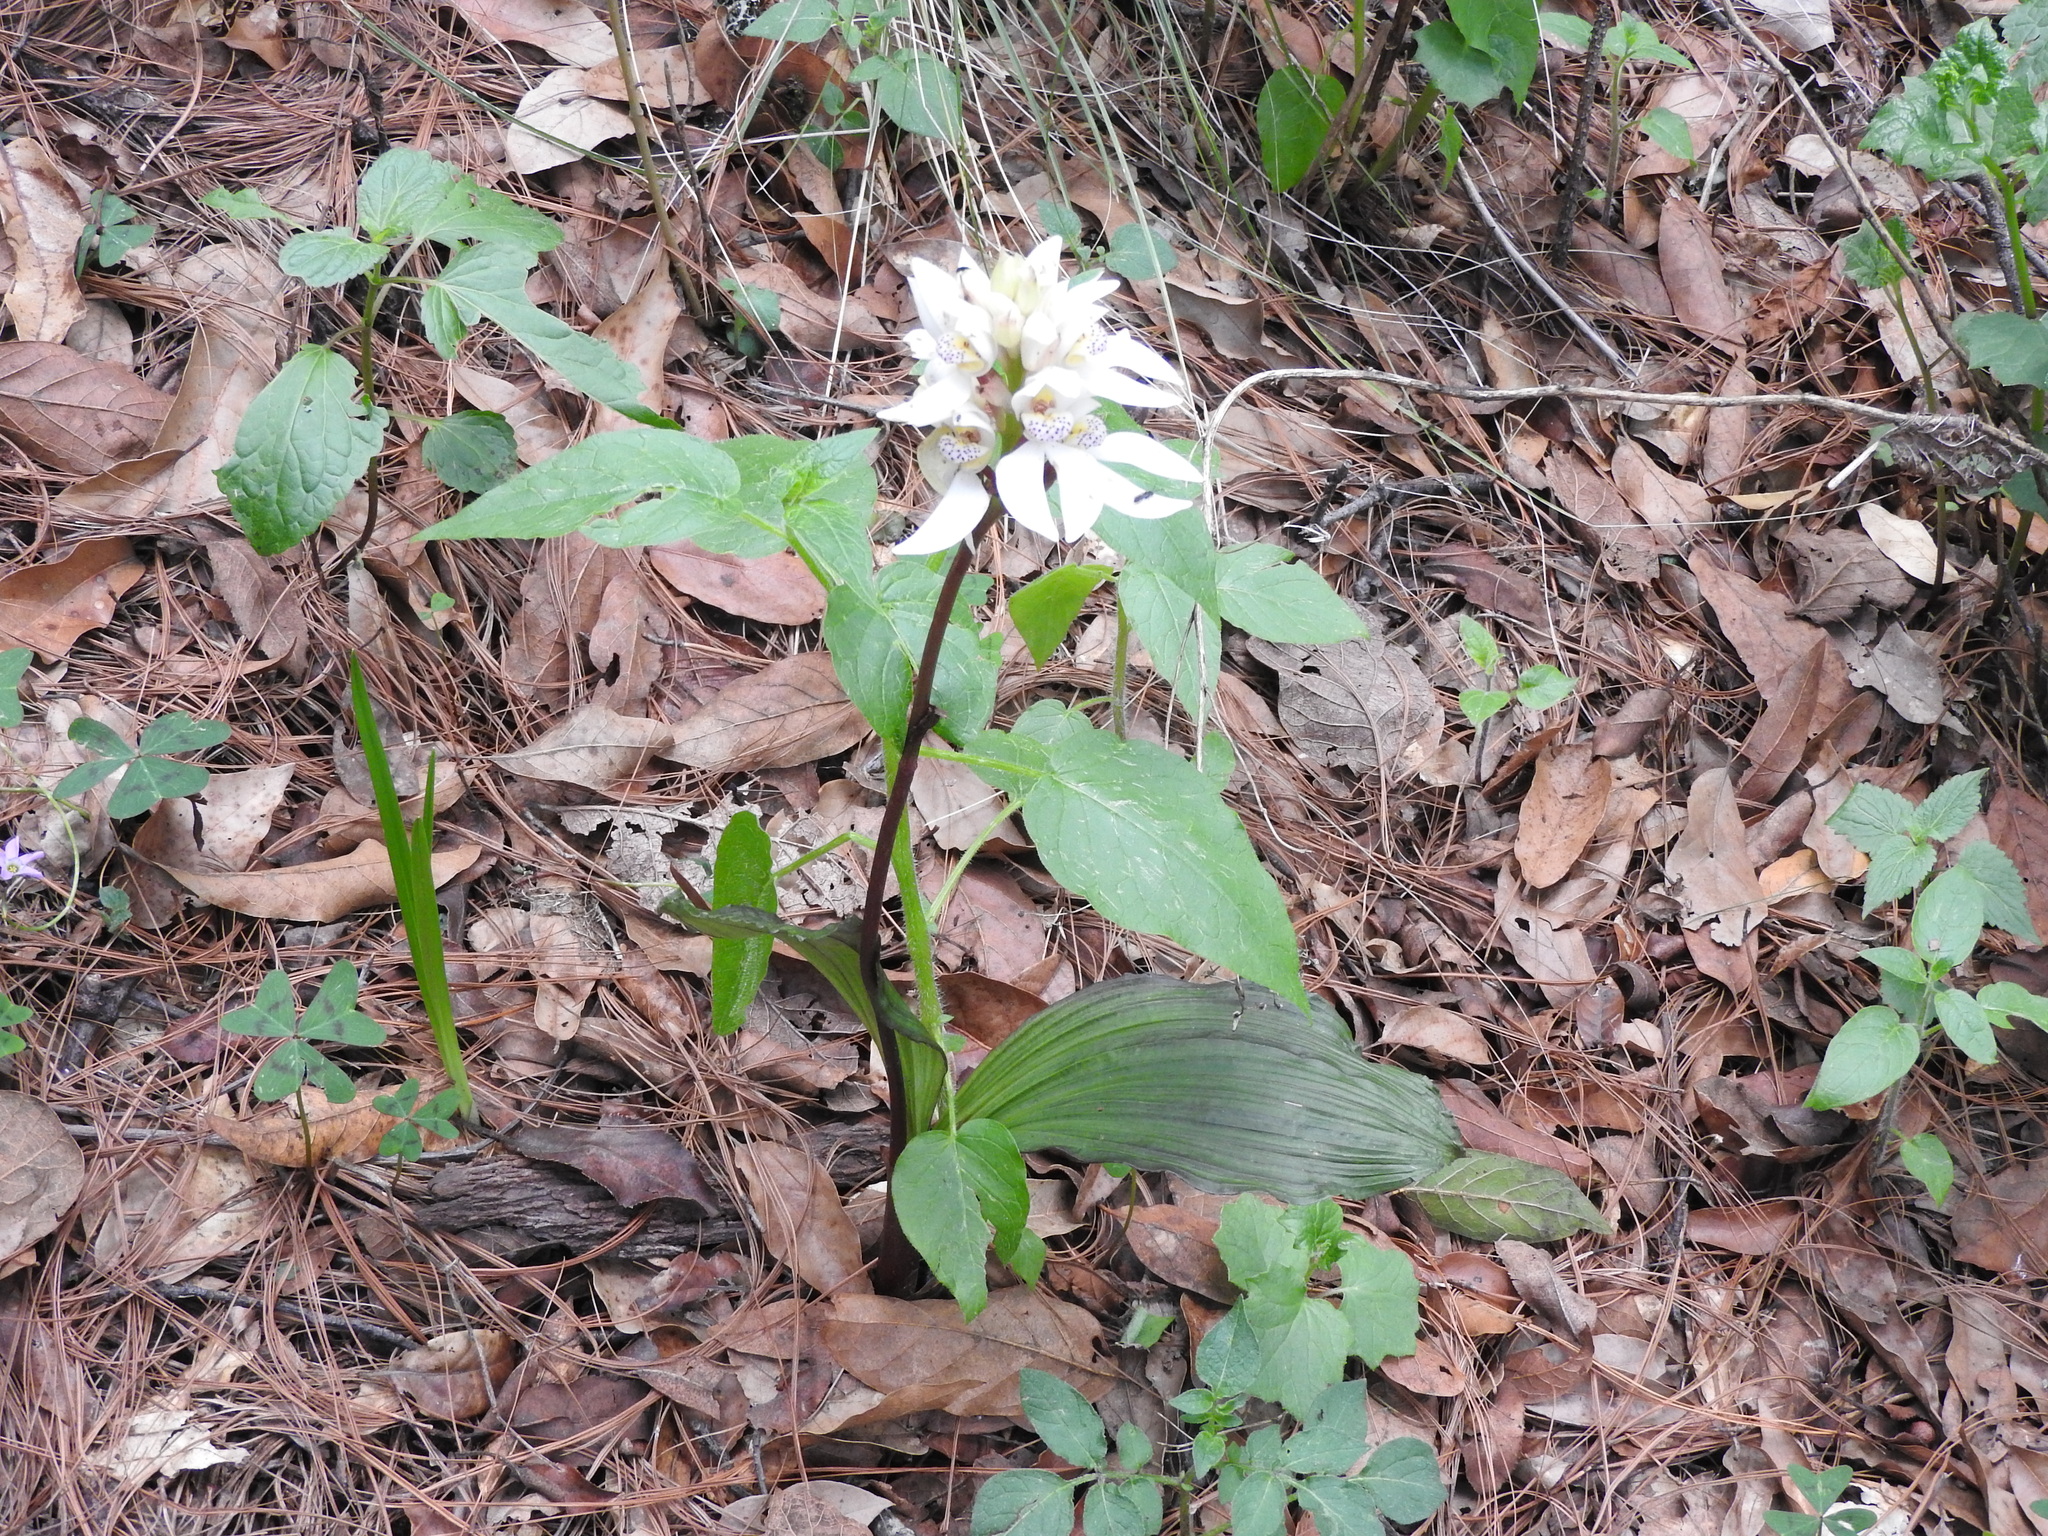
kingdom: Plantae
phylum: Tracheophyta
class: Liliopsida
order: Asparagales
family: Orchidaceae
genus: Govenia
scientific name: Govenia capitata
